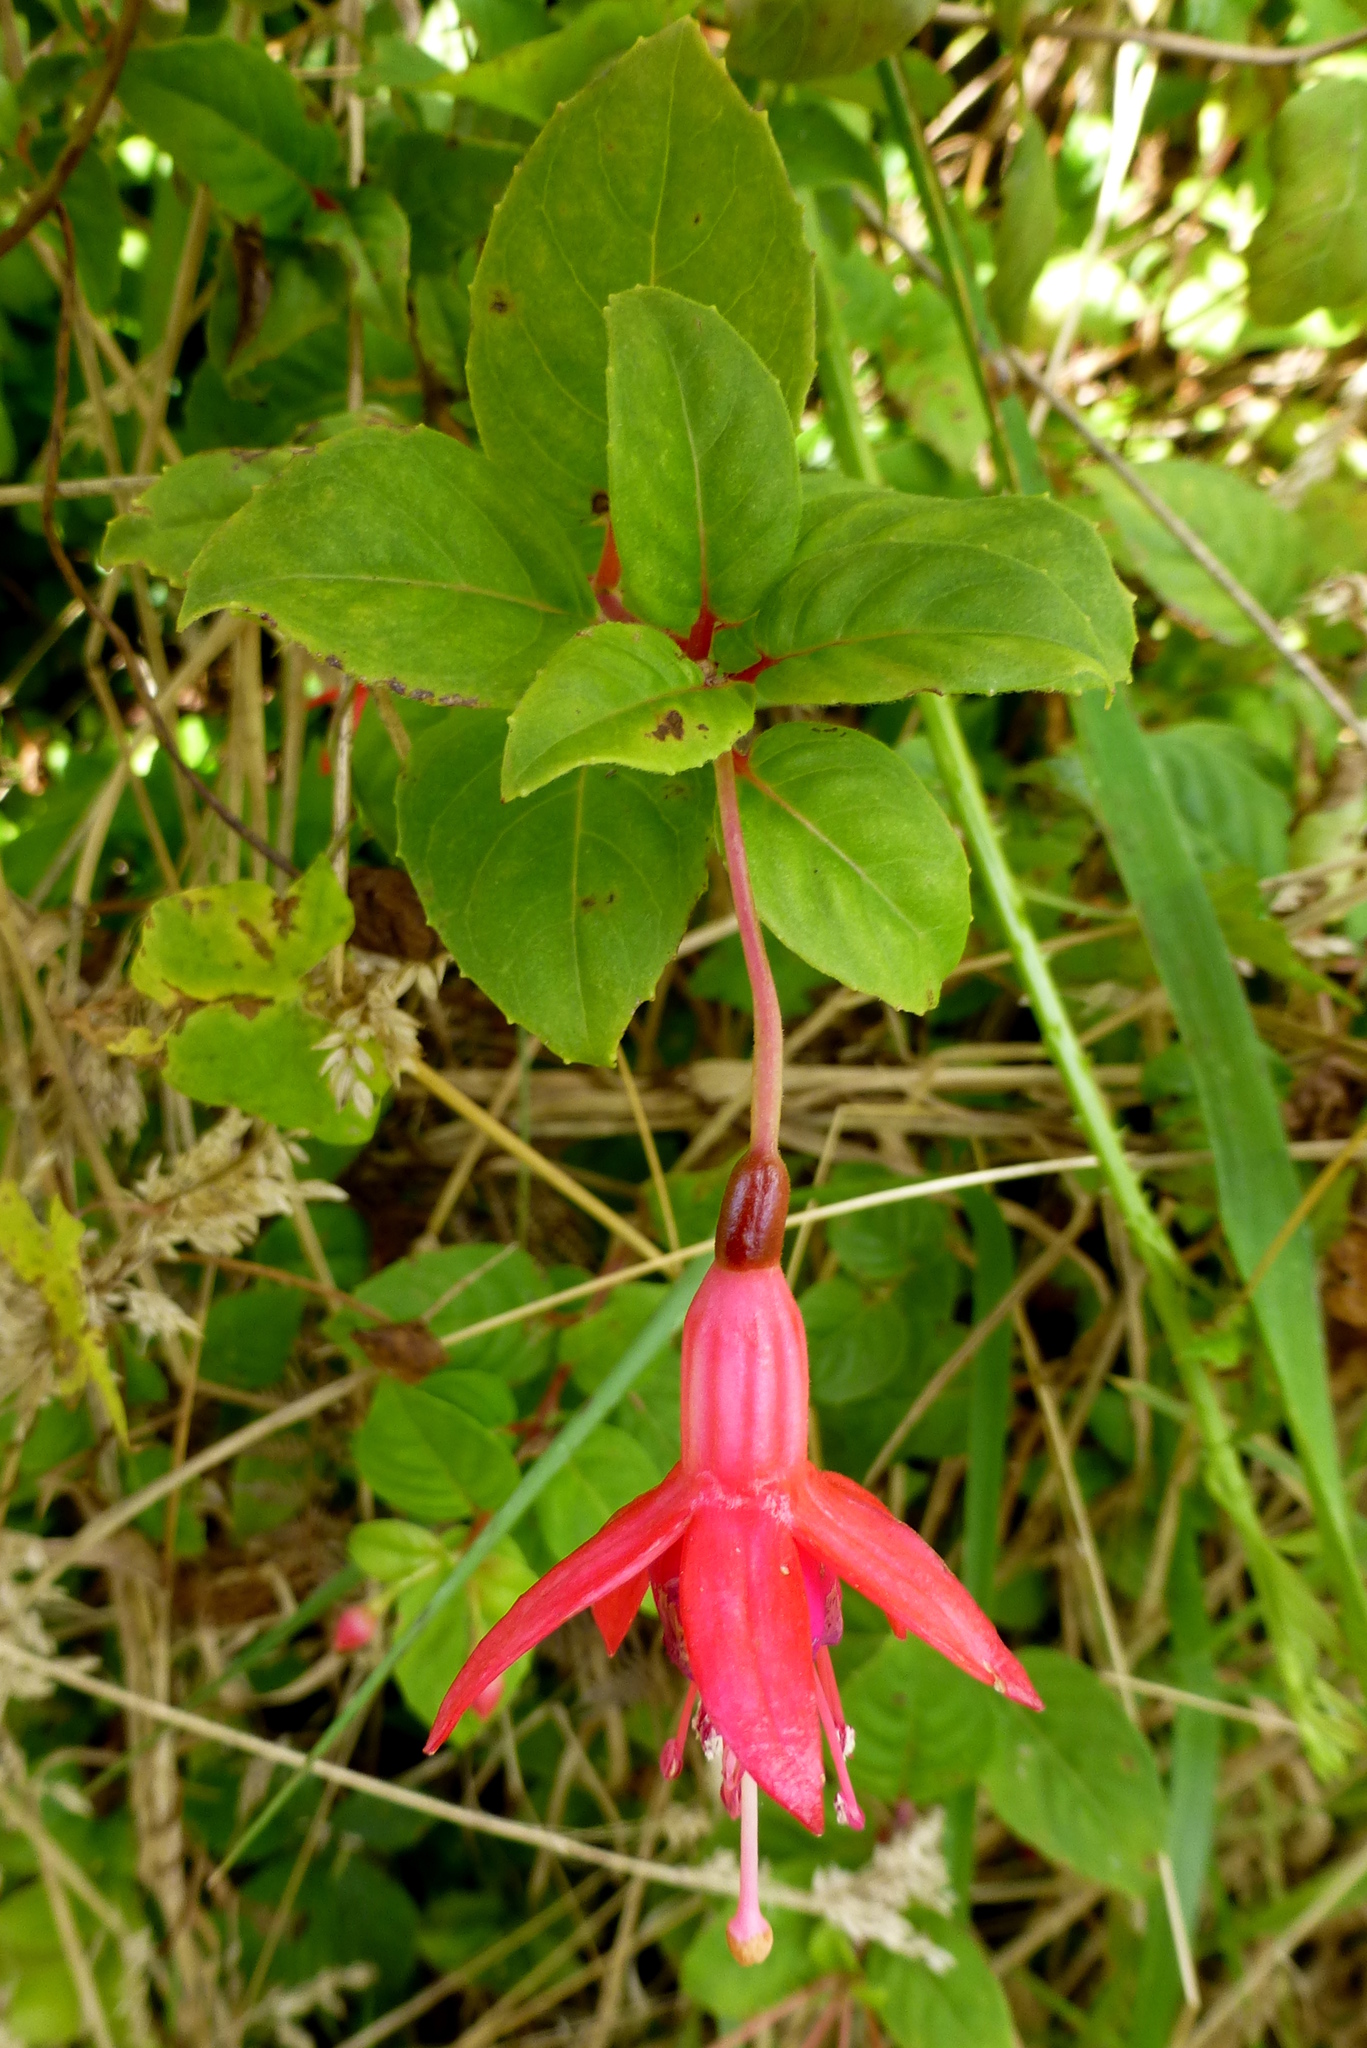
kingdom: Plantae
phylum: Tracheophyta
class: Magnoliopsida
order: Myrtales
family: Onagraceae
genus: Fuchsia
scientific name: Fuchsia magellanica
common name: Hardy fuchsia
